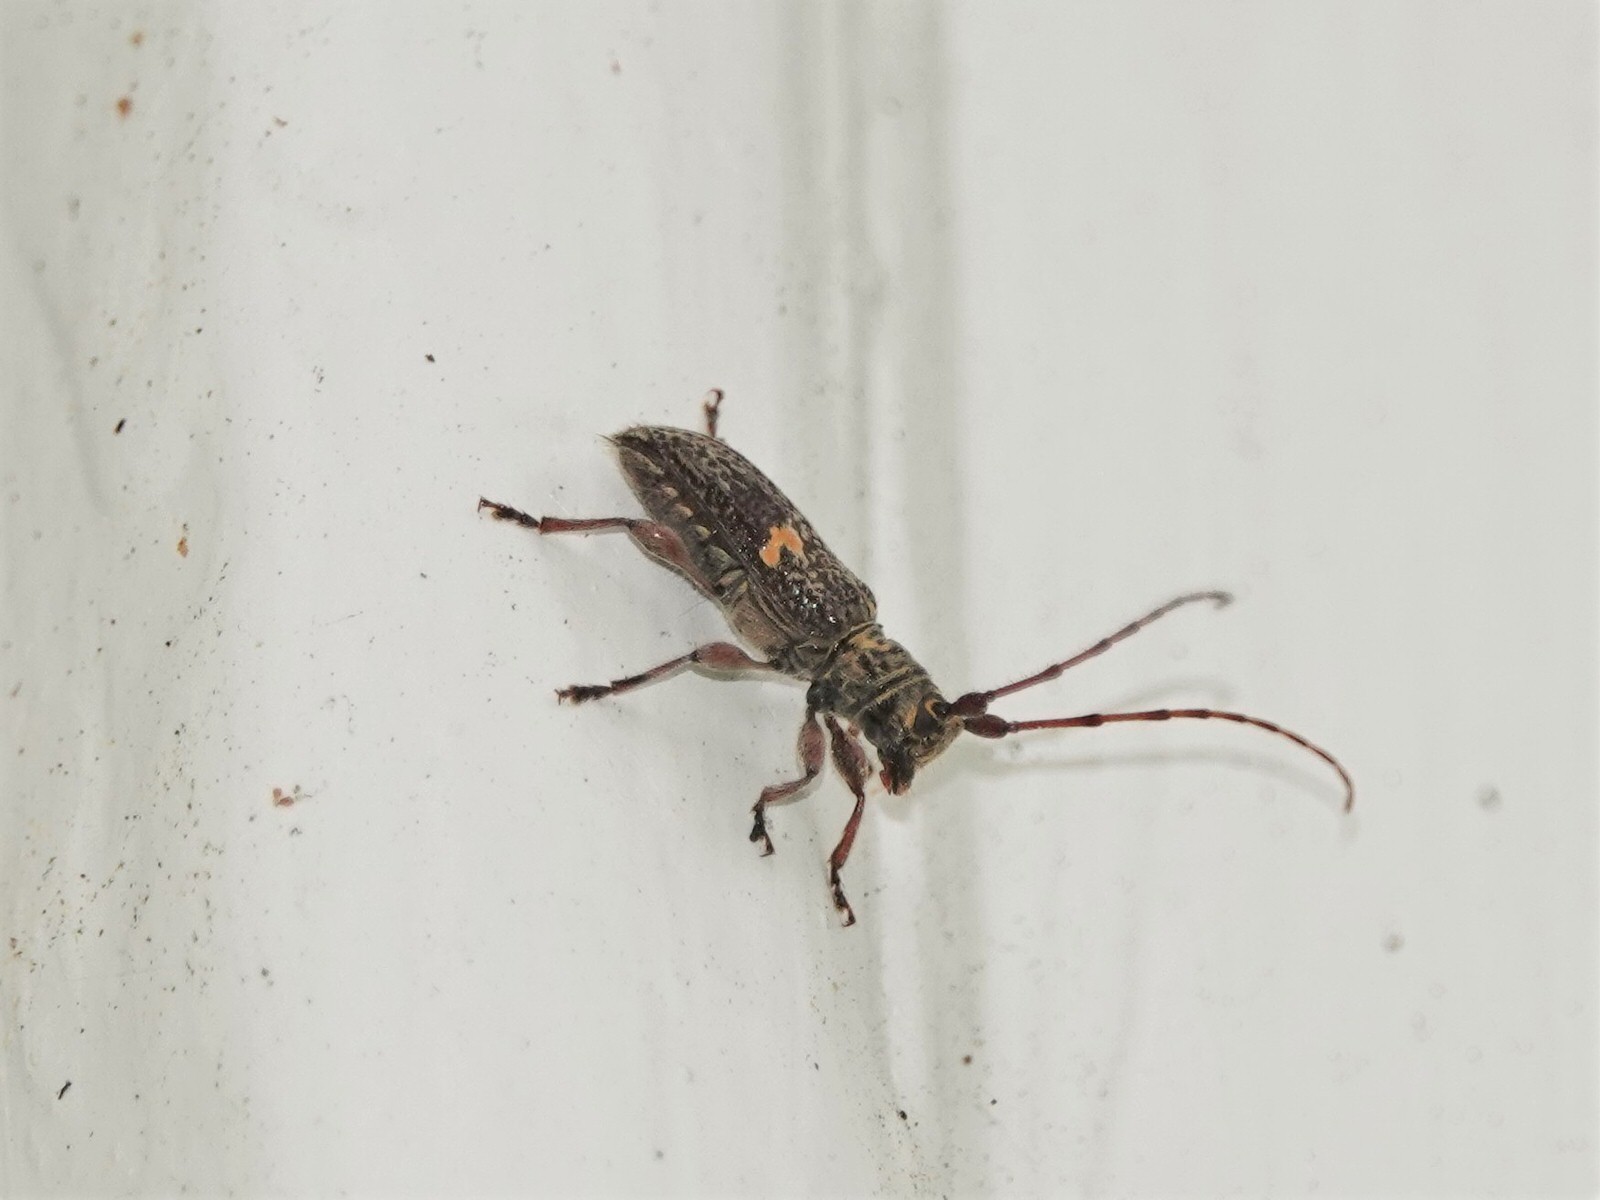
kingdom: Animalia
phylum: Arthropoda
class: Insecta
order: Coleoptera
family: Cerambycidae
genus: Hybolasius
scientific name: Hybolasius
